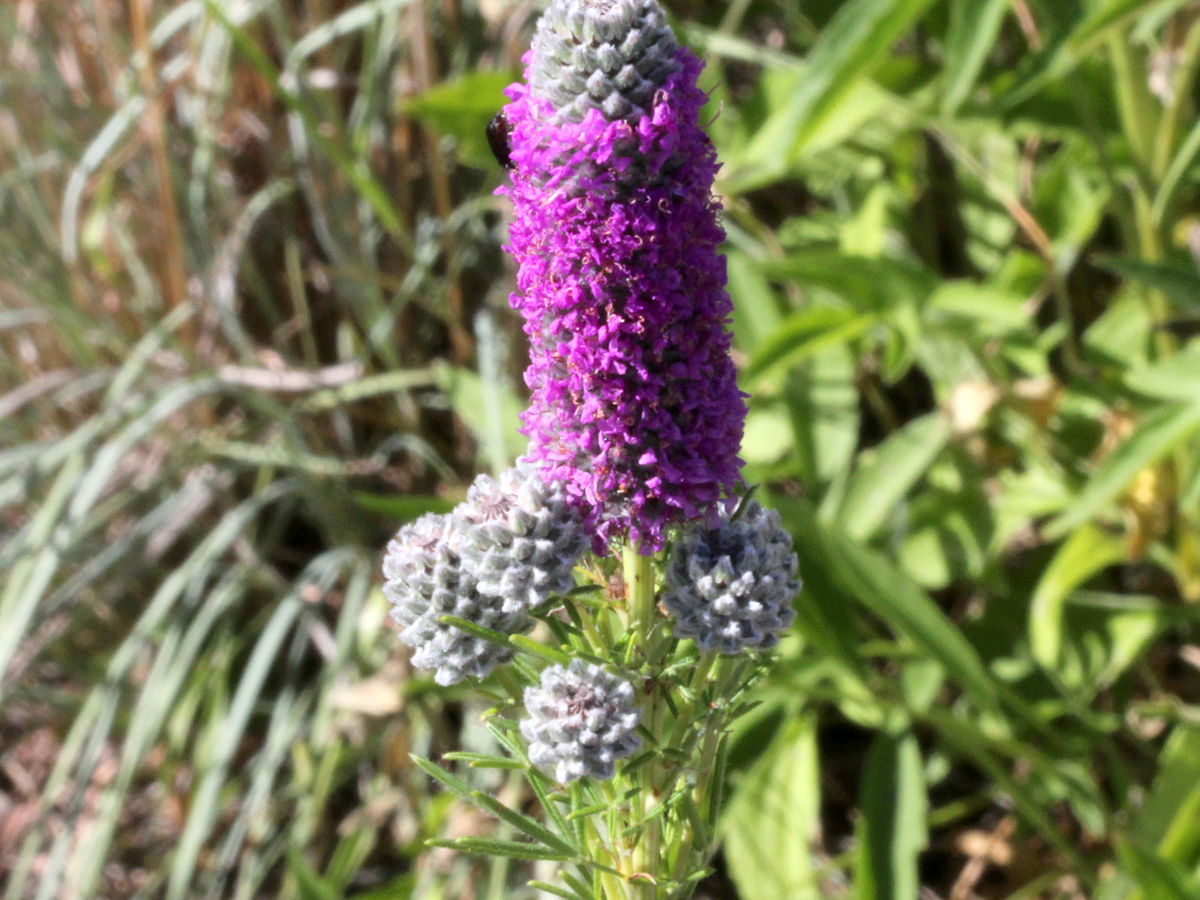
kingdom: Plantae
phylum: Tracheophyta
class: Magnoliopsida
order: Fabales
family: Fabaceae
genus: Dalea
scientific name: Dalea purpurea
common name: Purple prairie-clover
